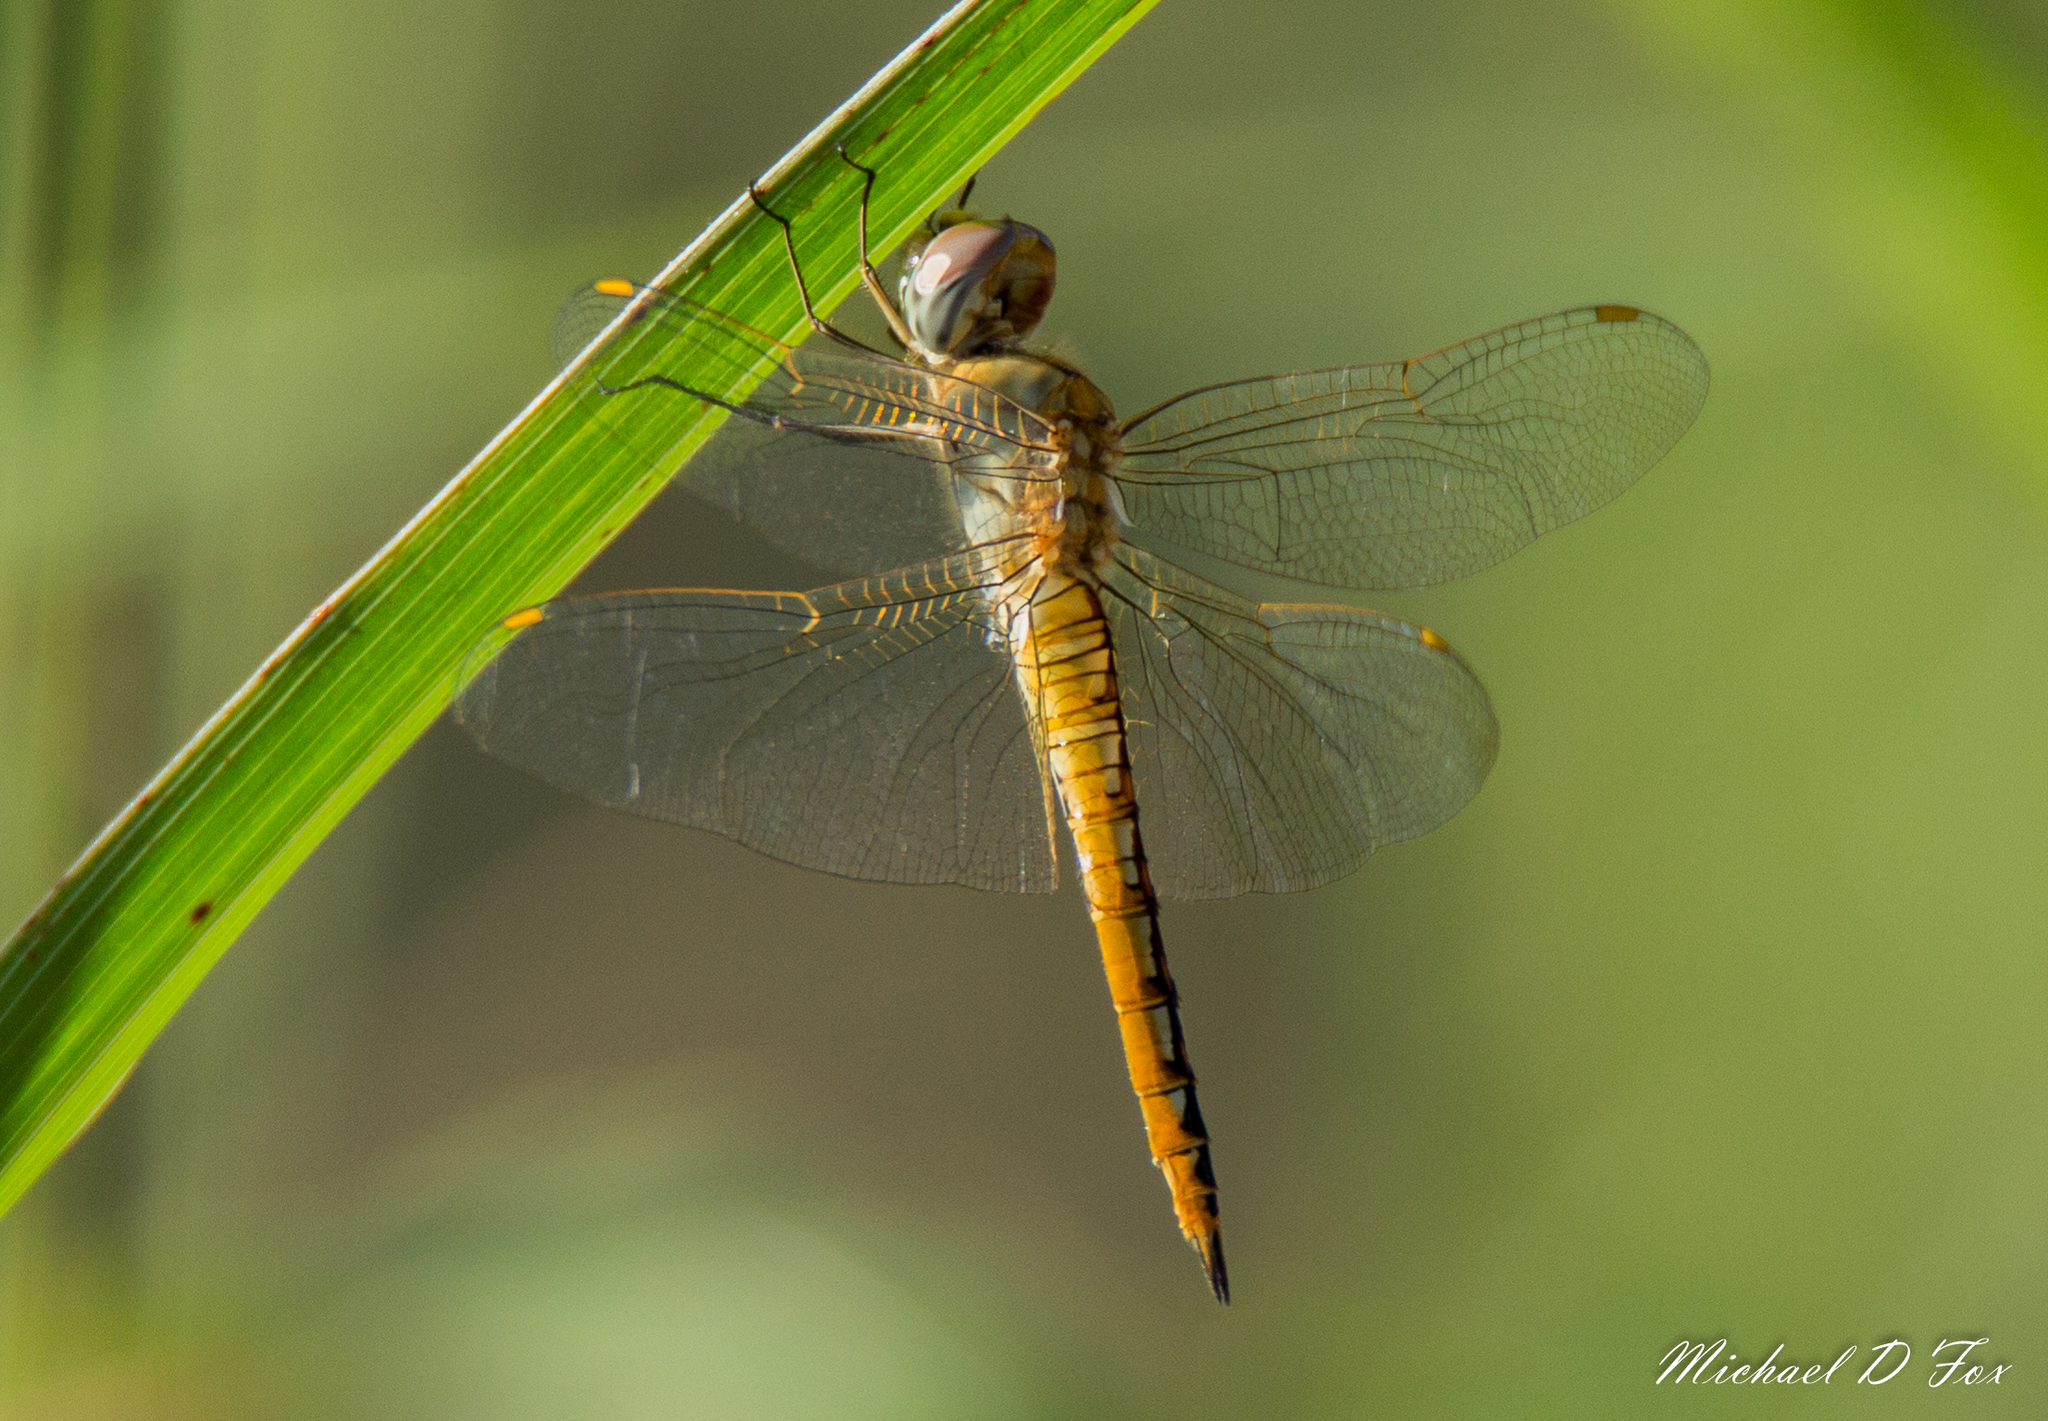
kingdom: Animalia
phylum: Arthropoda
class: Insecta
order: Odonata
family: Libellulidae
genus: Pantala
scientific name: Pantala flavescens
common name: Wandering glider
